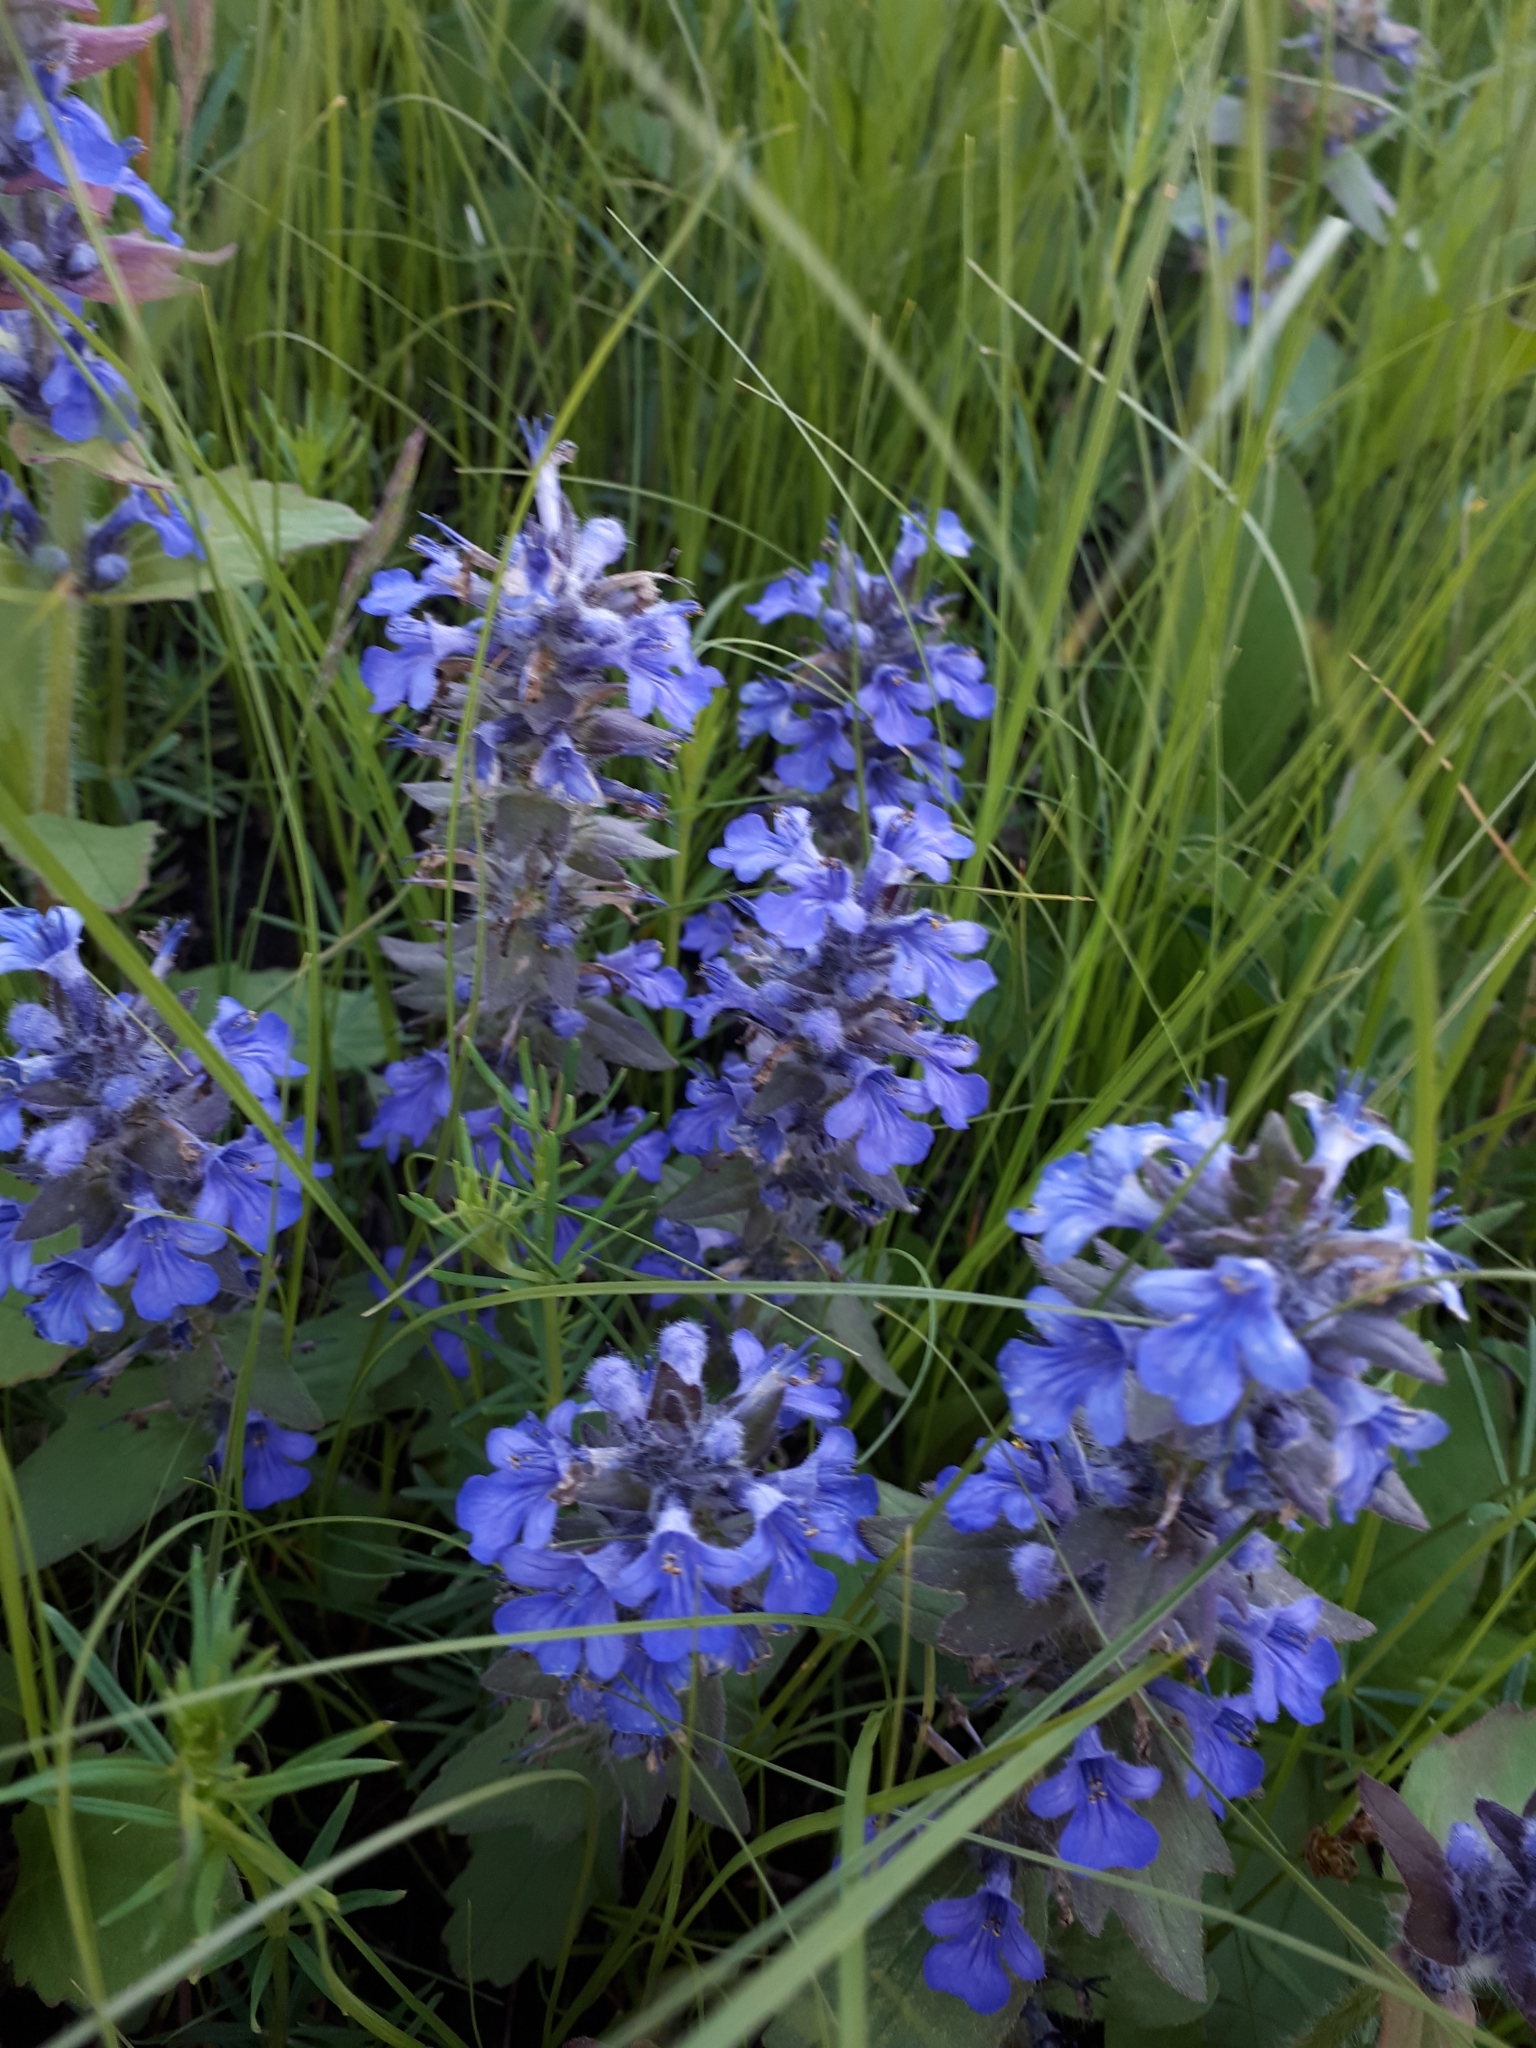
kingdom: Plantae
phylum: Tracheophyta
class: Magnoliopsida
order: Lamiales
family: Lamiaceae
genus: Ajuga
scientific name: Ajuga genevensis
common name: Blue bugle
